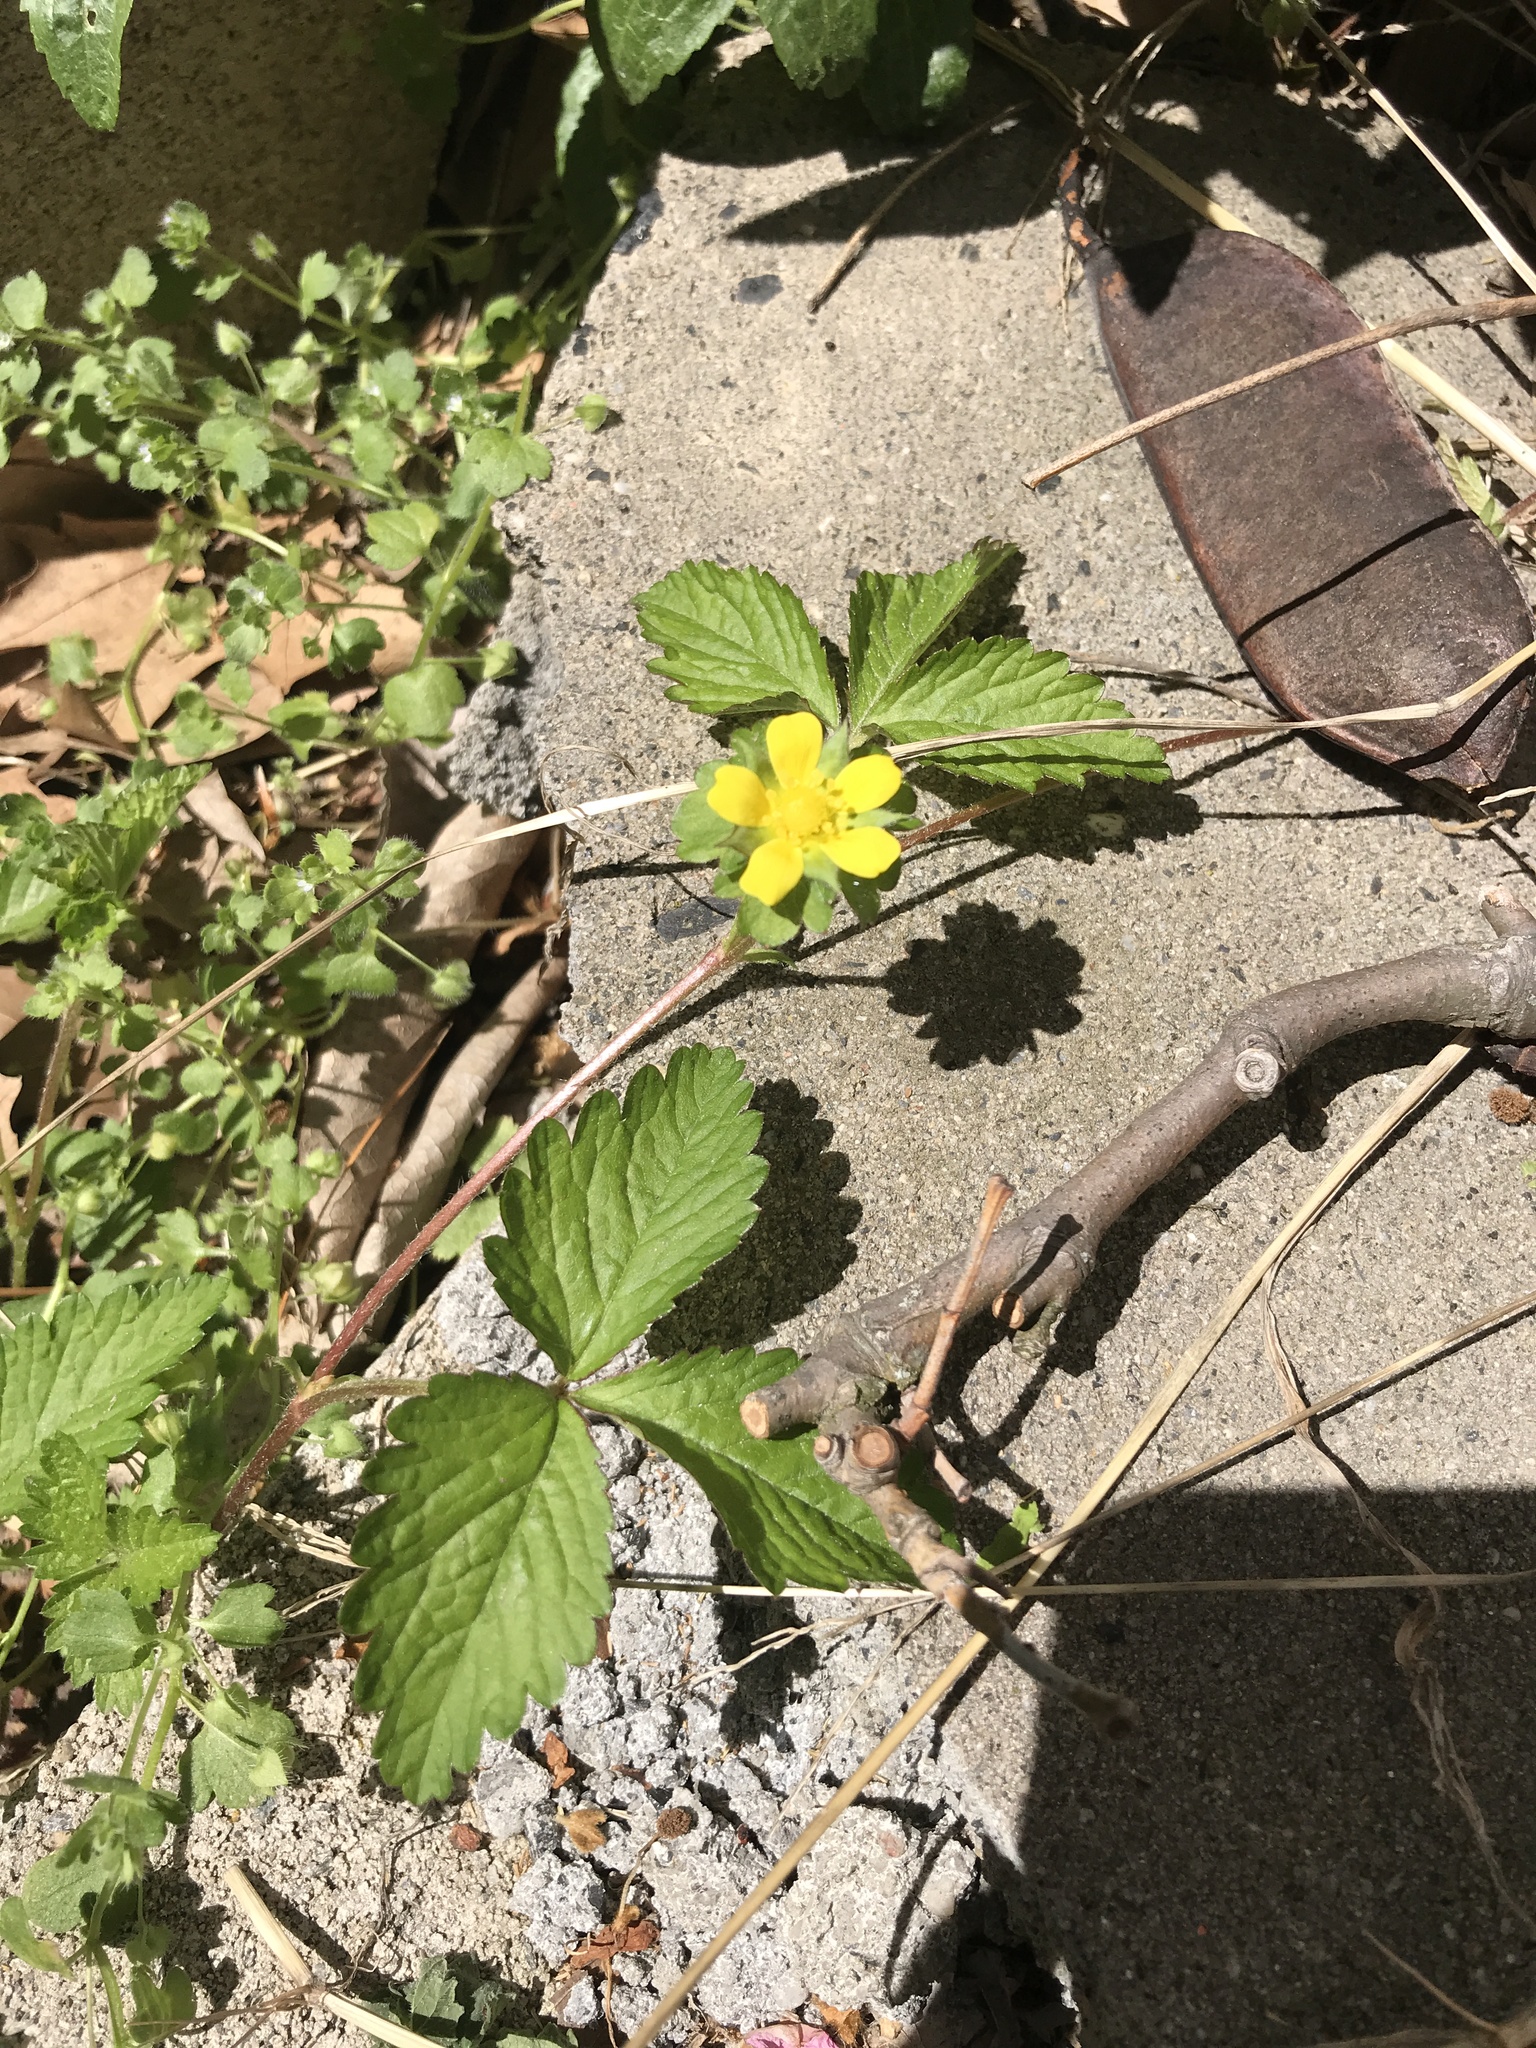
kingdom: Plantae
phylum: Tracheophyta
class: Magnoliopsida
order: Rosales
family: Rosaceae
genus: Potentilla
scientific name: Potentilla indica
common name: Yellow-flowered strawberry
